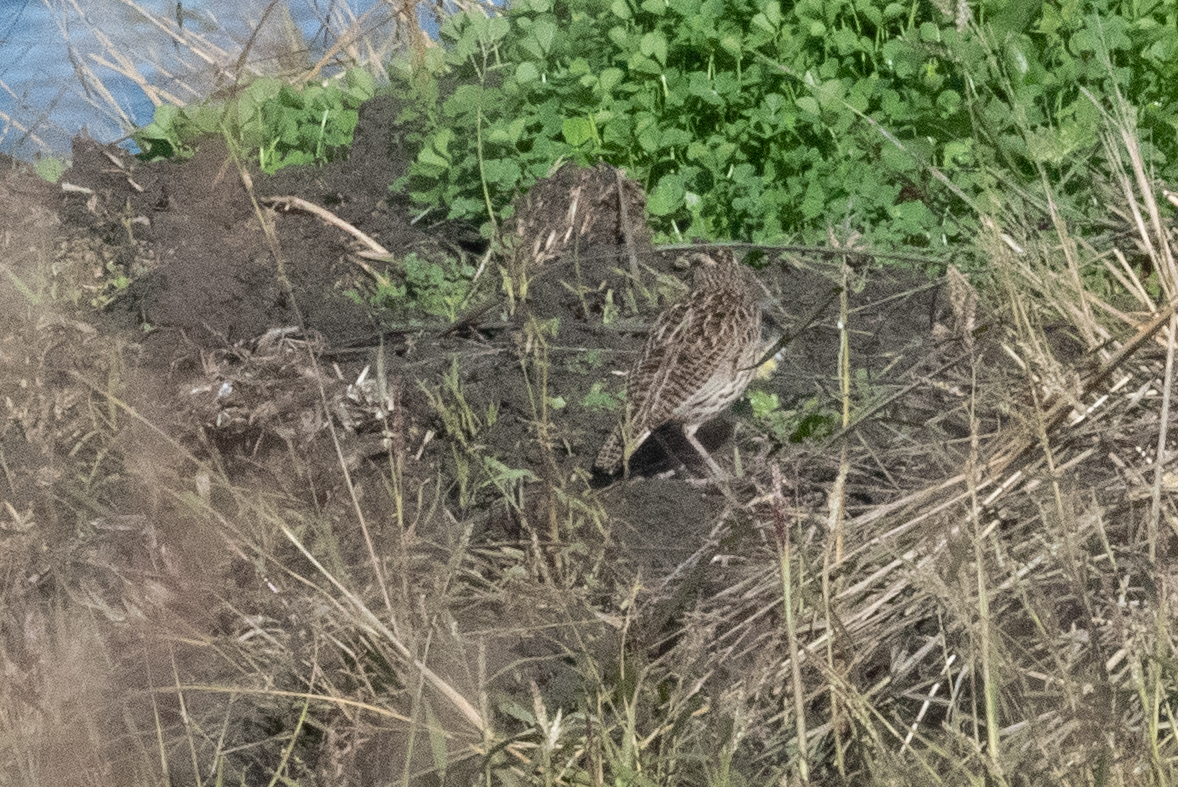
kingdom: Animalia
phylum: Chordata
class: Aves
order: Passeriformes
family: Icteridae
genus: Sturnella
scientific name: Sturnella neglecta
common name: Western meadowlark
